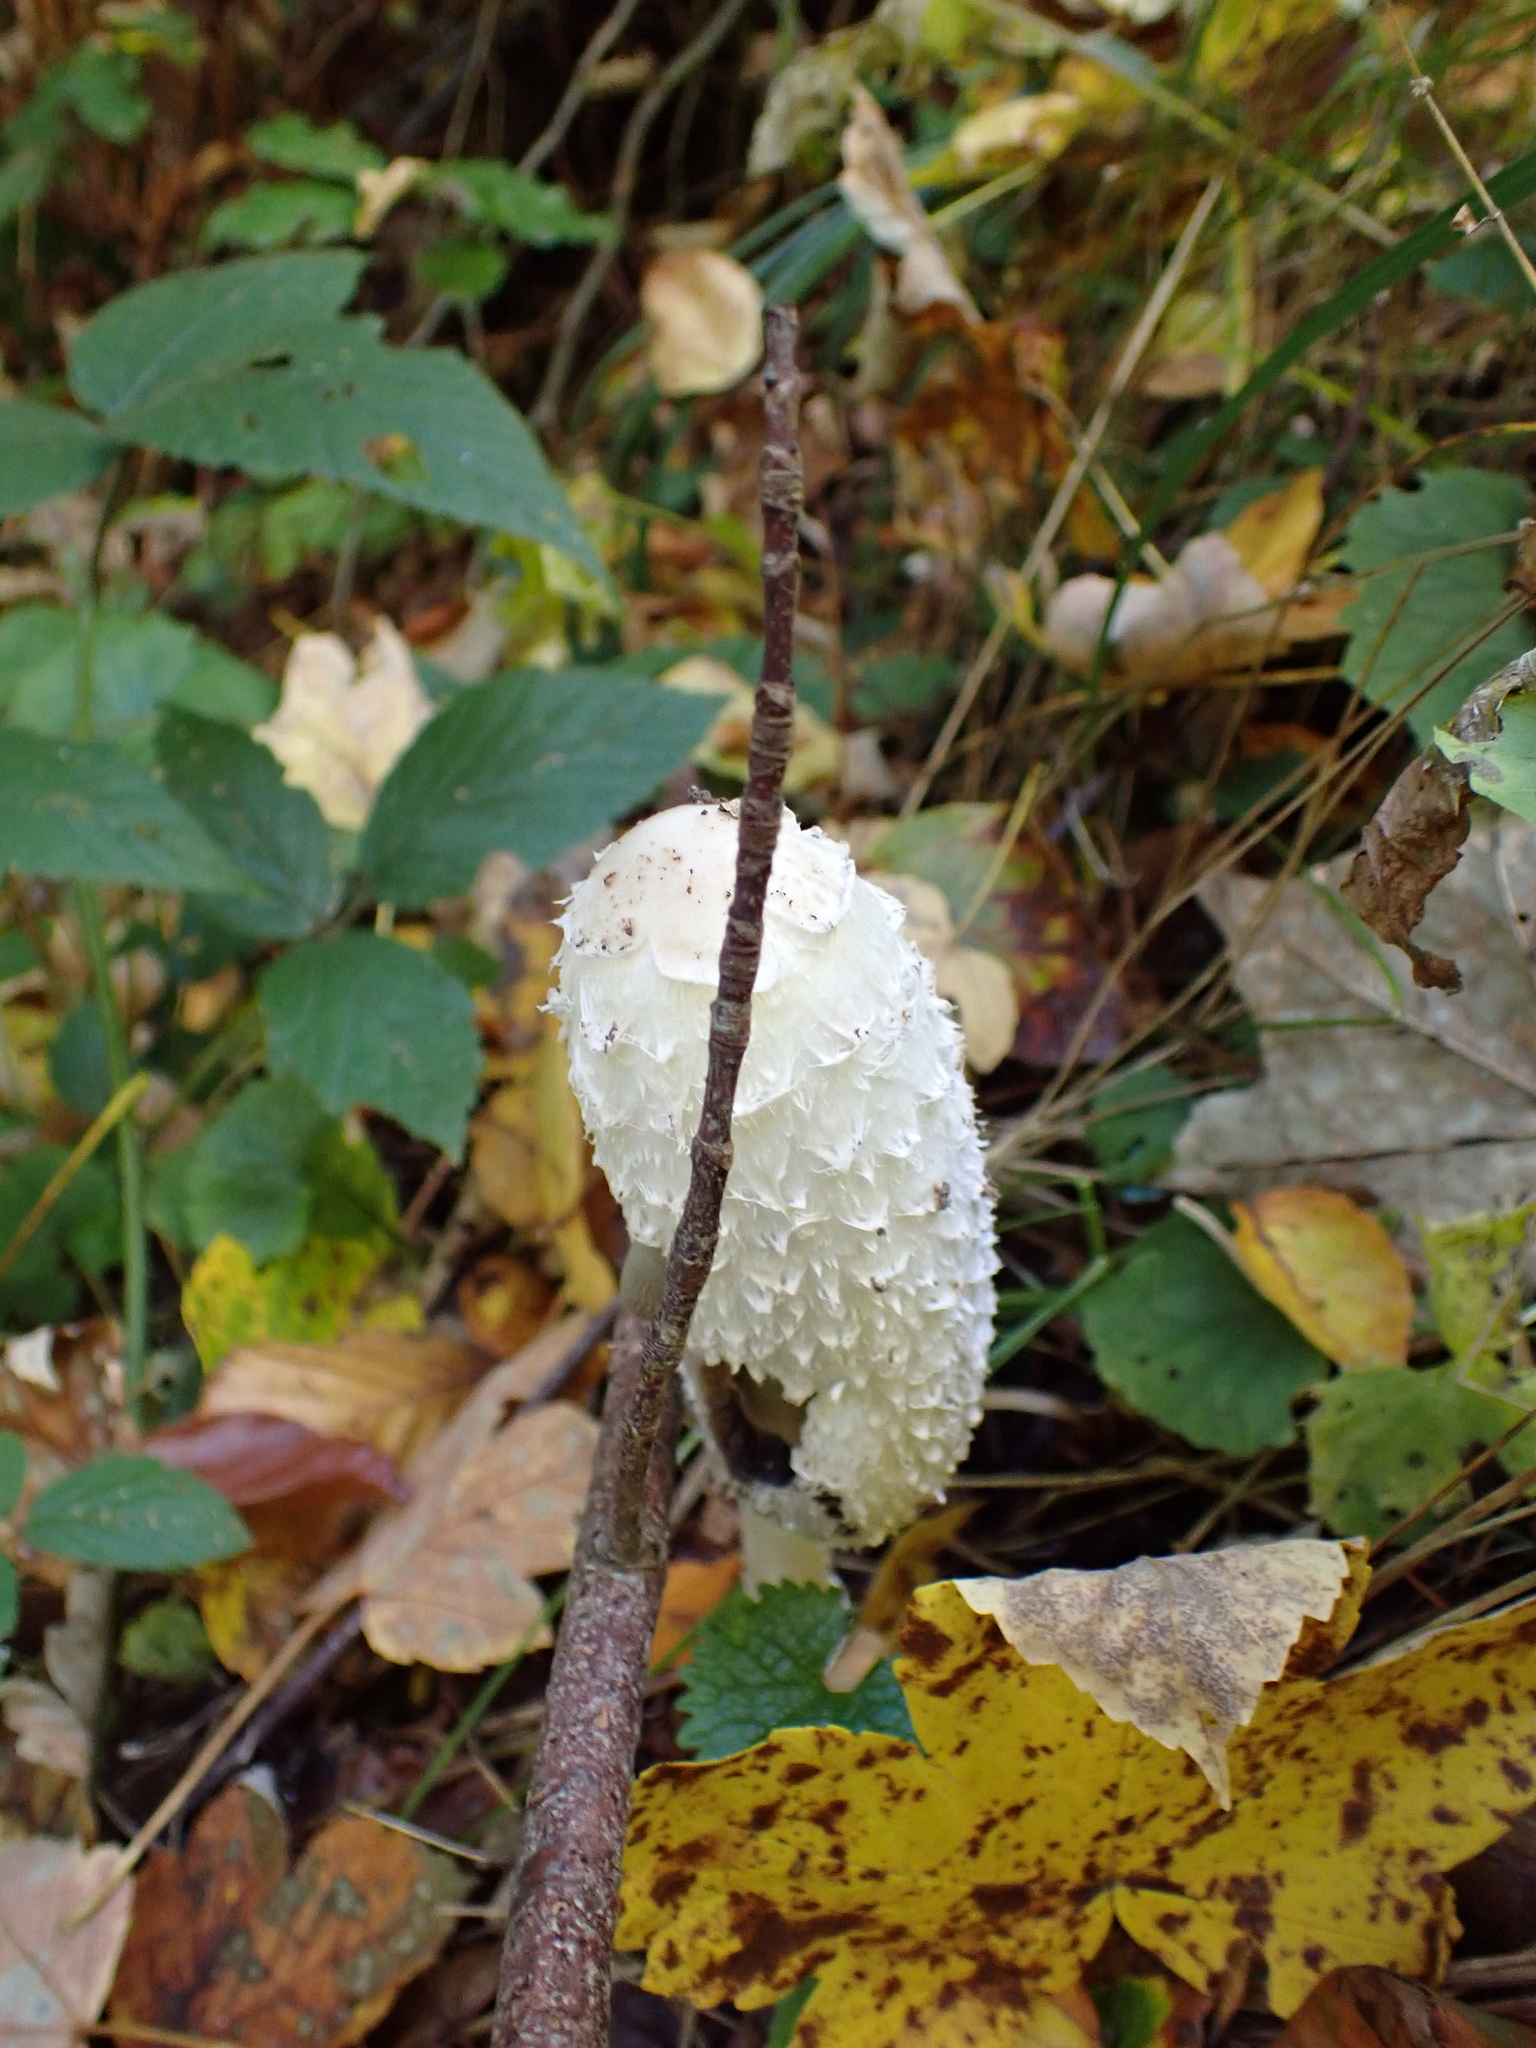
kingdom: Fungi
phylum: Basidiomycota
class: Agaricomycetes
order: Agaricales
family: Agaricaceae
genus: Coprinus
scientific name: Coprinus comatus
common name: Lawyer's wig
